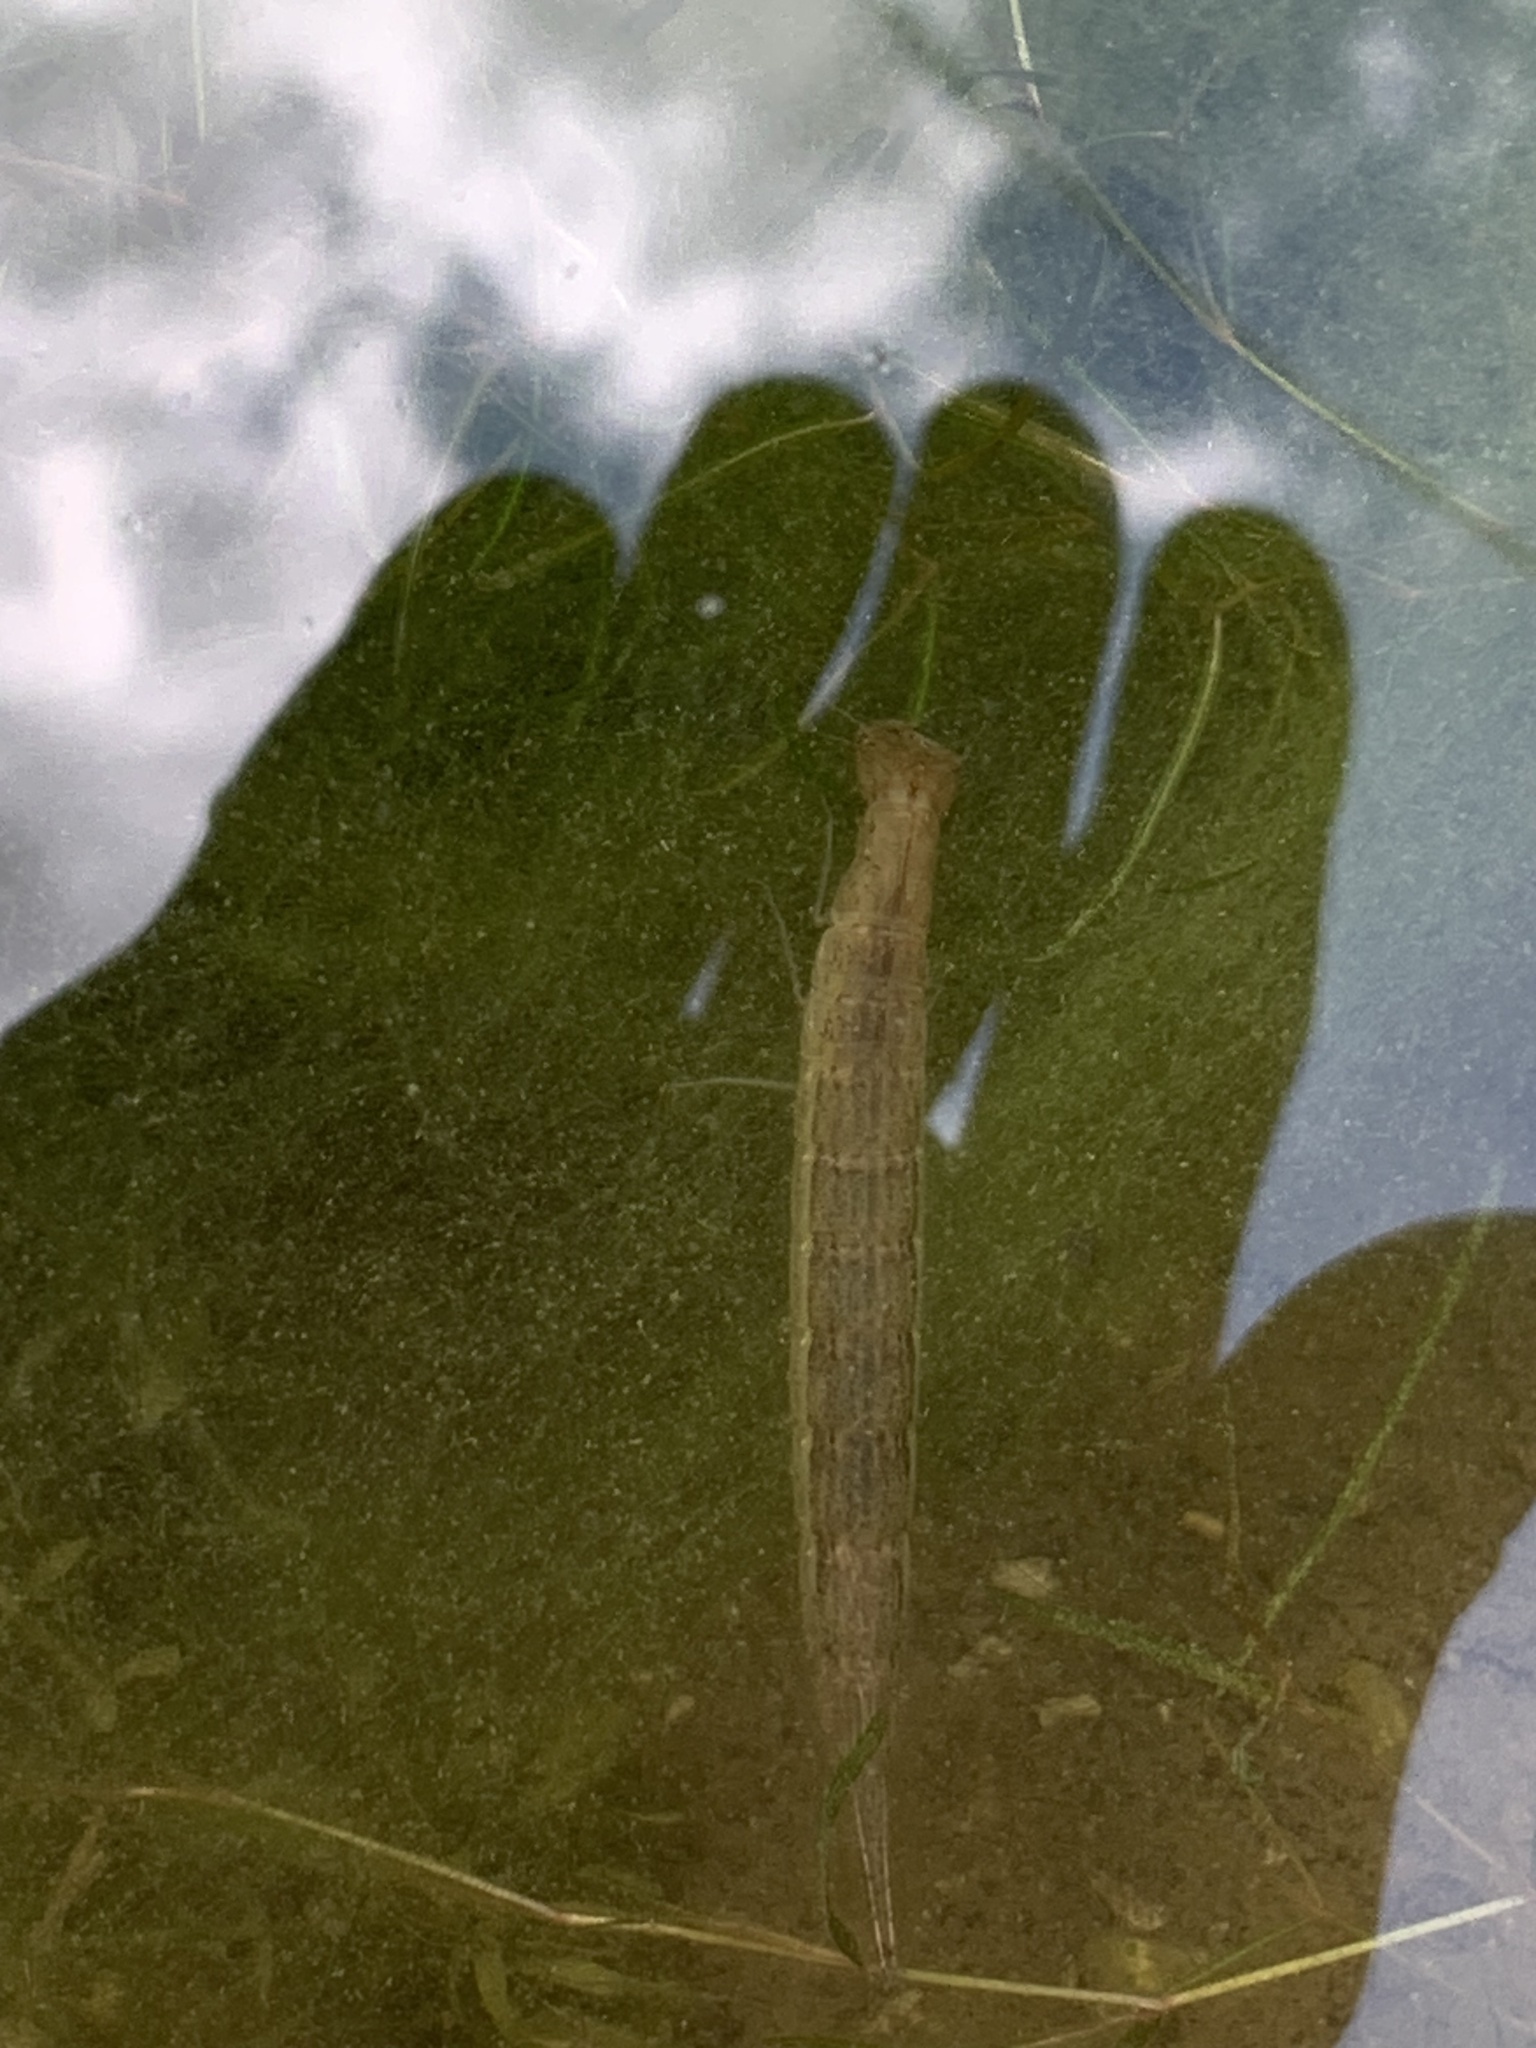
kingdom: Animalia
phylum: Arthropoda
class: Insecta
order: Coleoptera
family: Dytiscidae
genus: Cybister
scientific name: Cybister fimbriolatus
